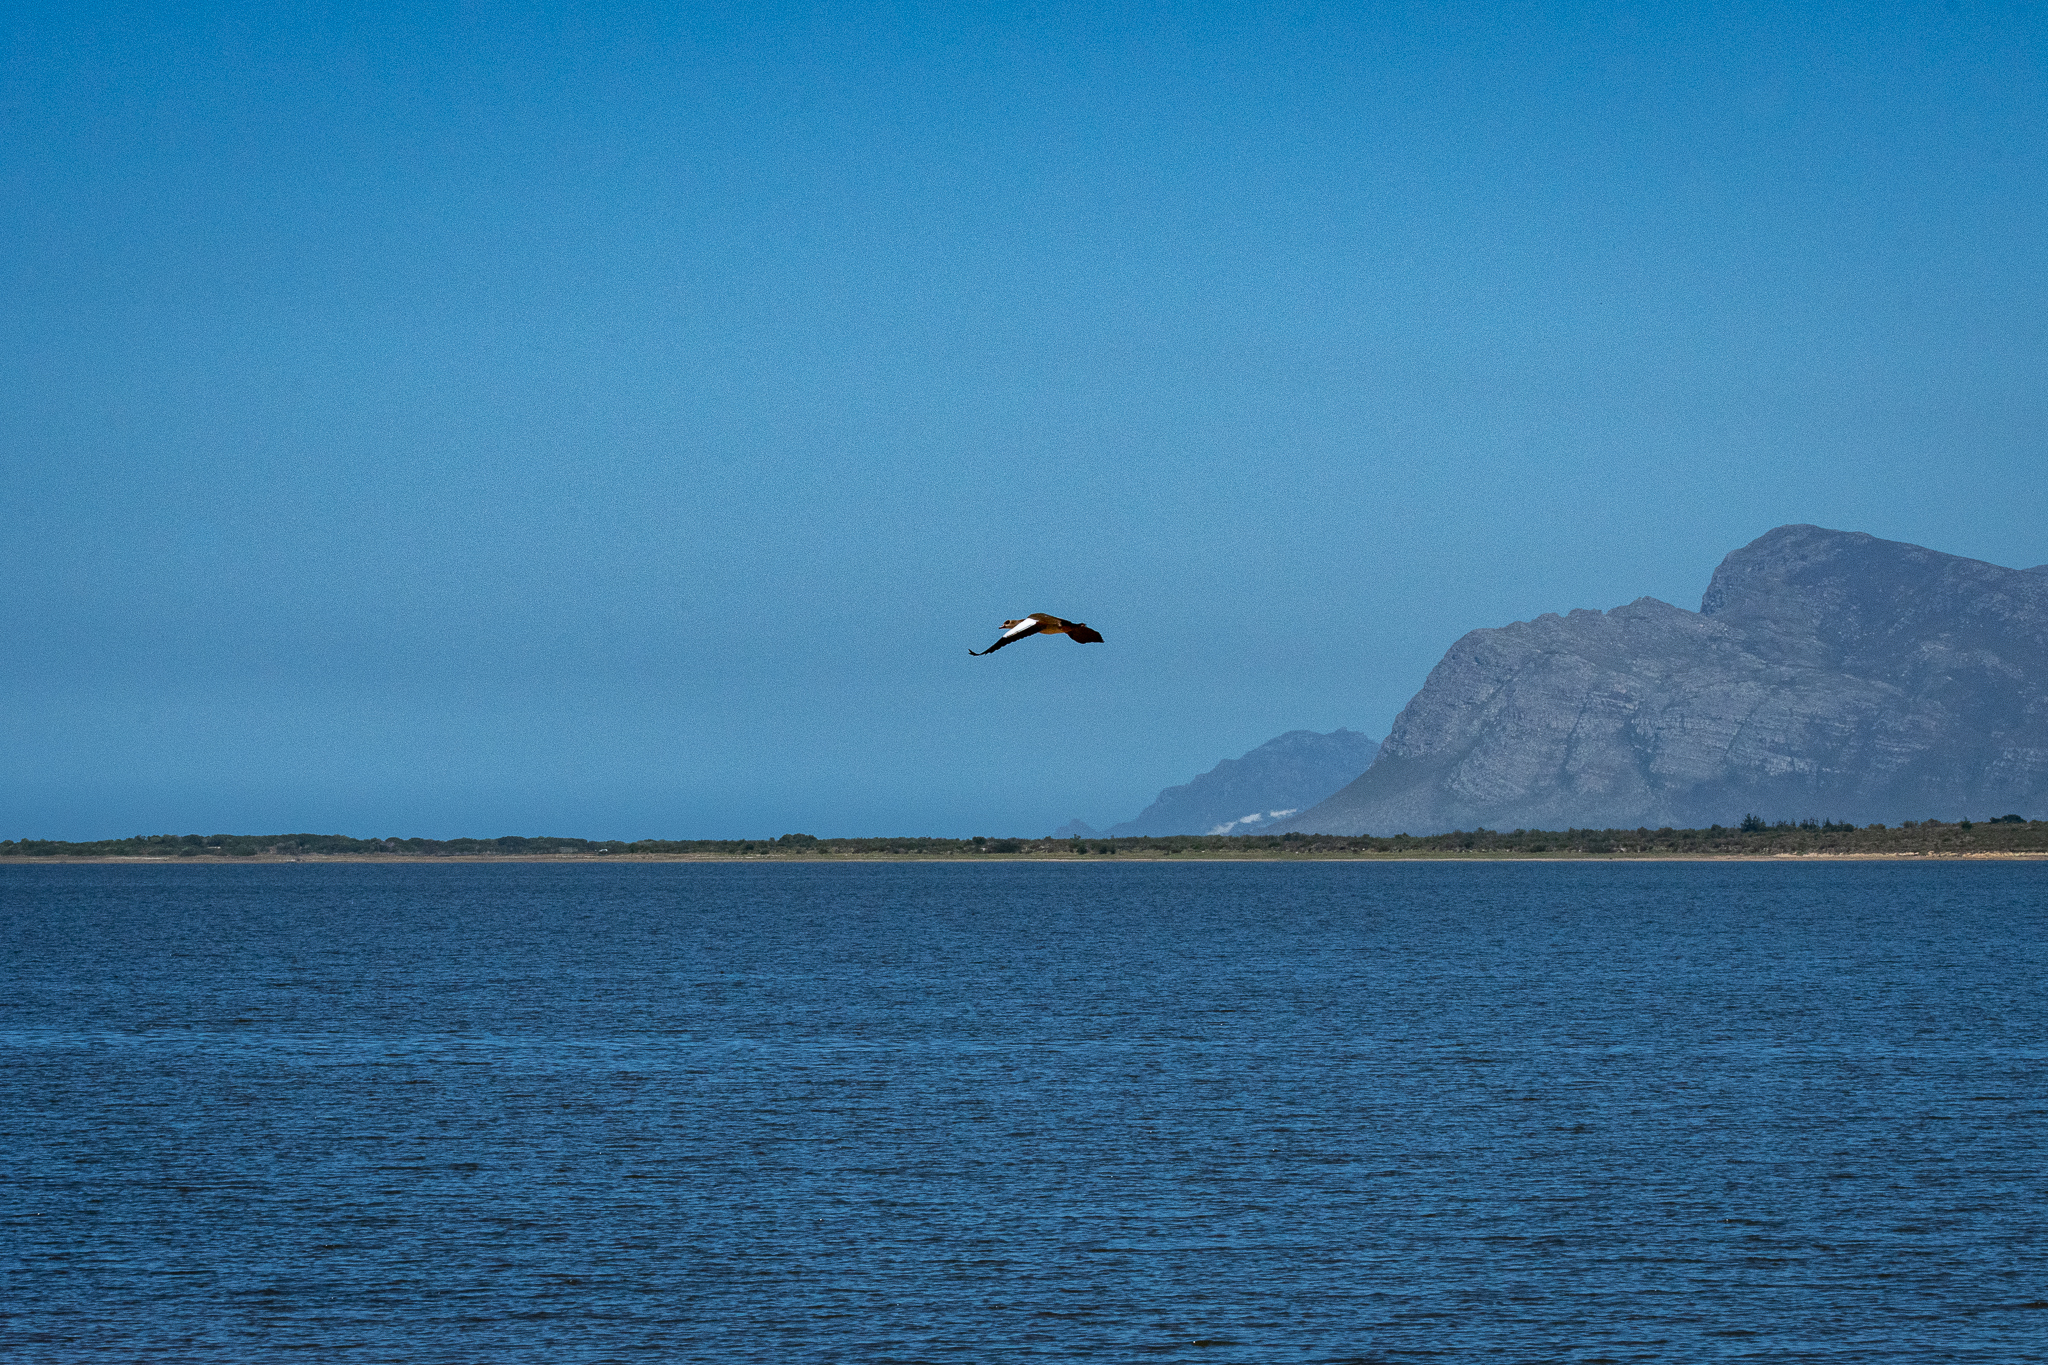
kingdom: Animalia
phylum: Chordata
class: Aves
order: Anseriformes
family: Anatidae
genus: Alopochen
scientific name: Alopochen aegyptiaca
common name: Egyptian goose
